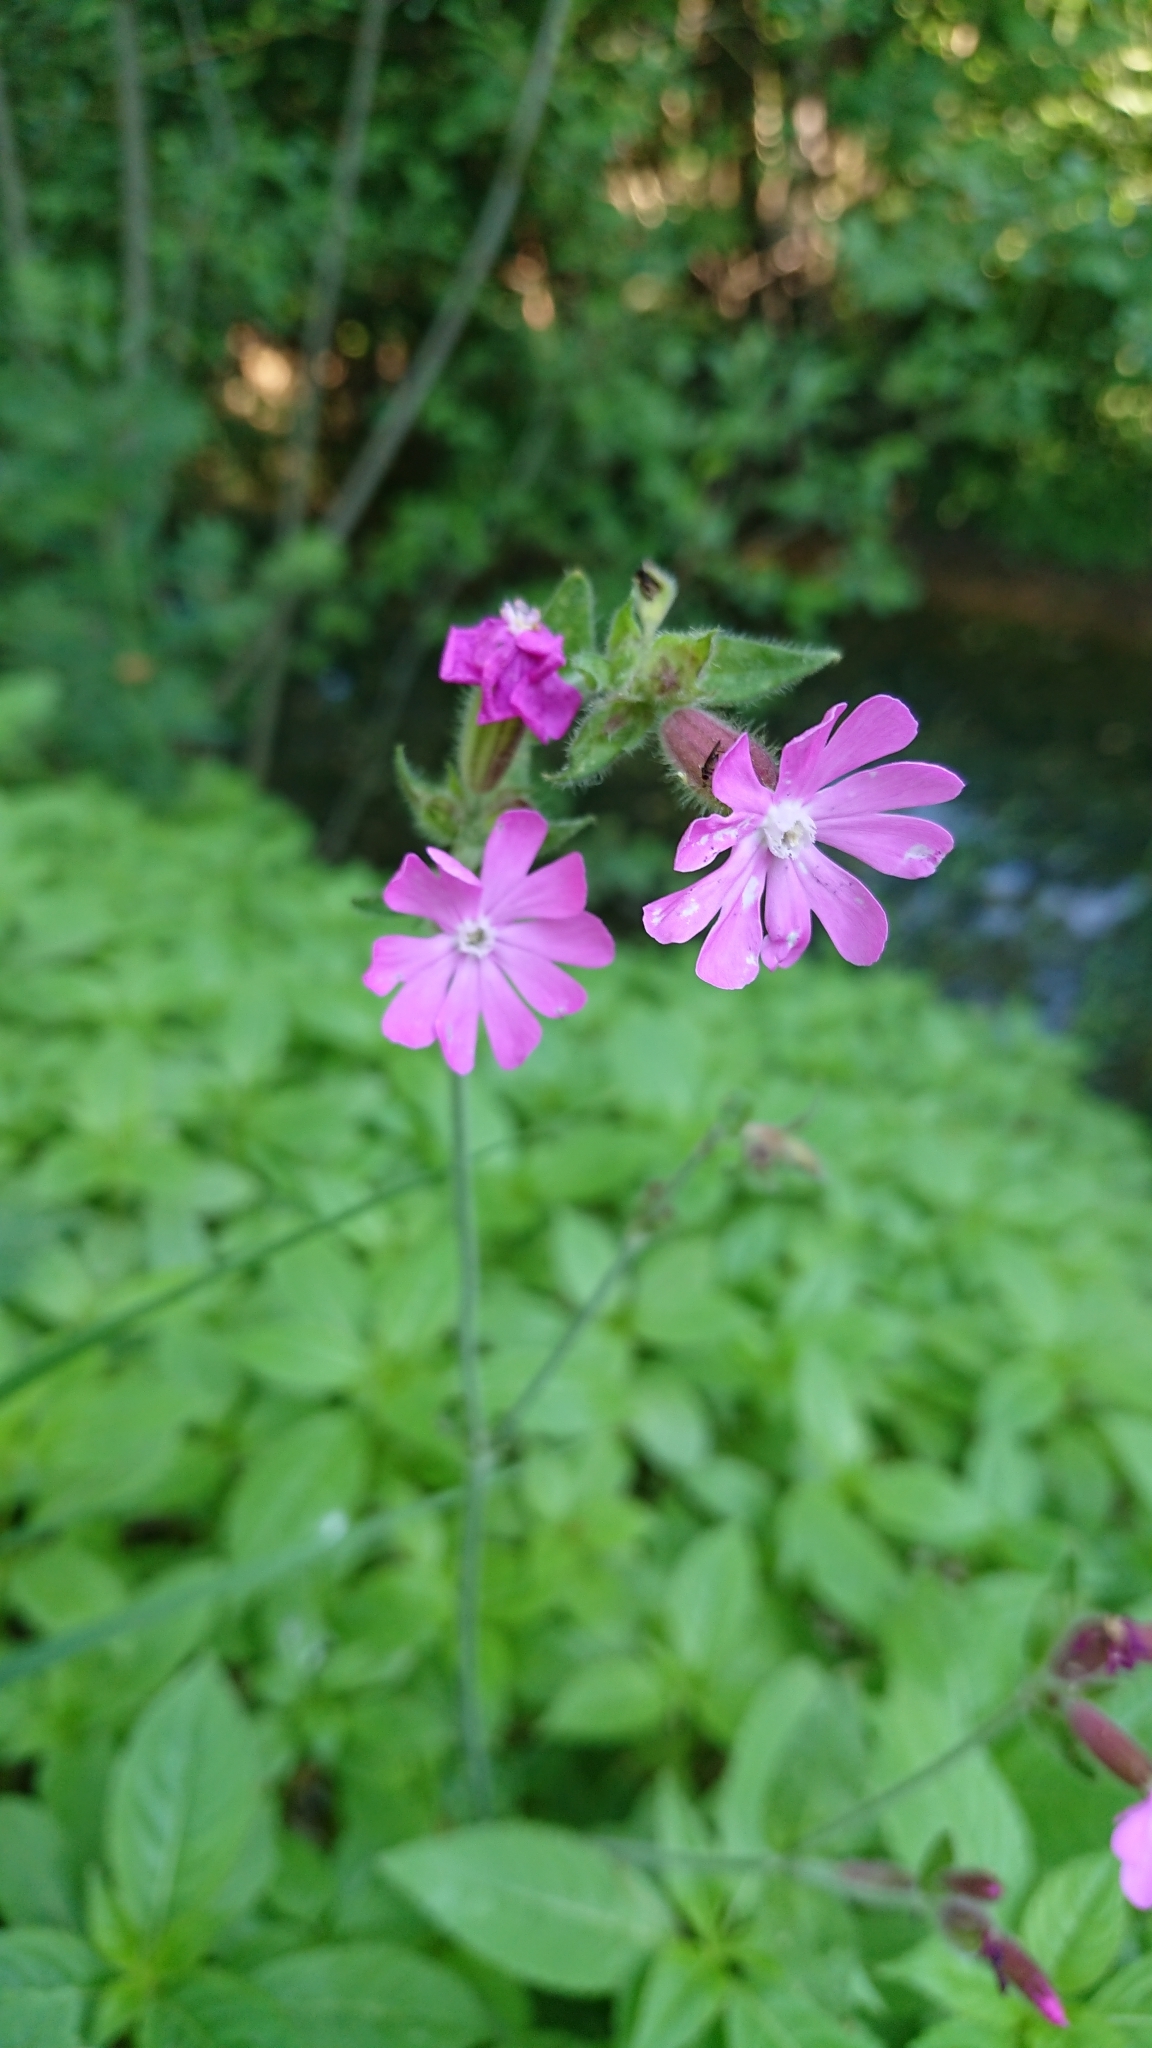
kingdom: Plantae
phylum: Tracheophyta
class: Magnoliopsida
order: Caryophyllales
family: Caryophyllaceae
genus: Silene
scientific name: Silene dioica
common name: Red campion
